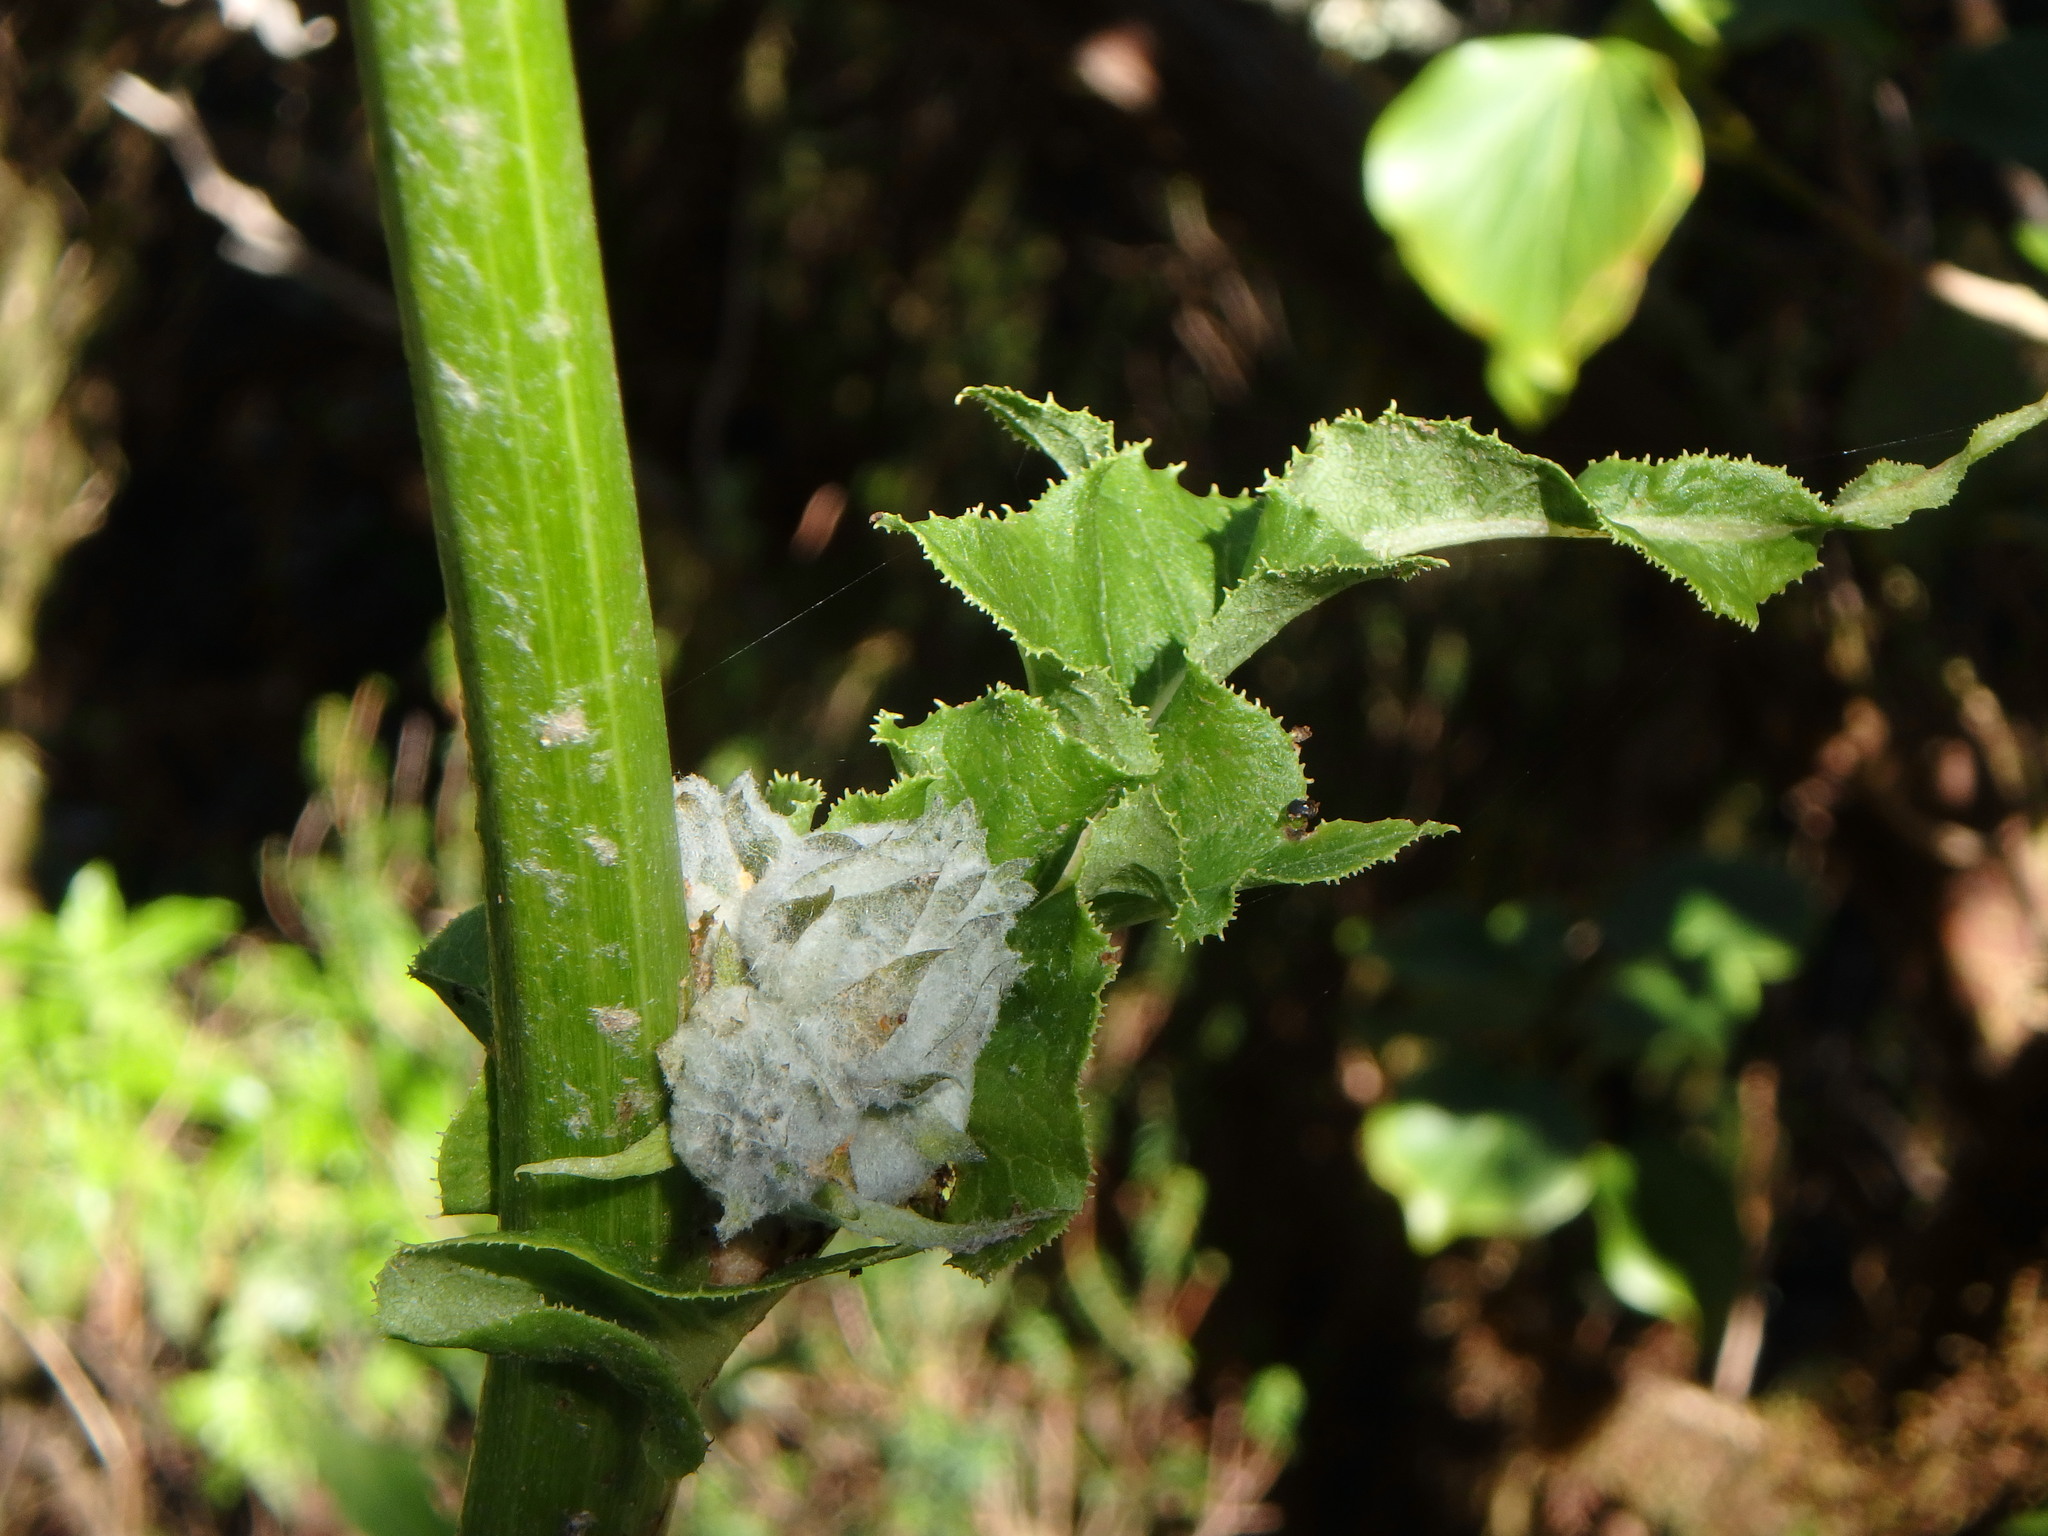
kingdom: Plantae
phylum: Tracheophyta
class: Magnoliopsida
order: Asterales
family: Asteraceae
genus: Sonchus
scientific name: Sonchus acaulis
